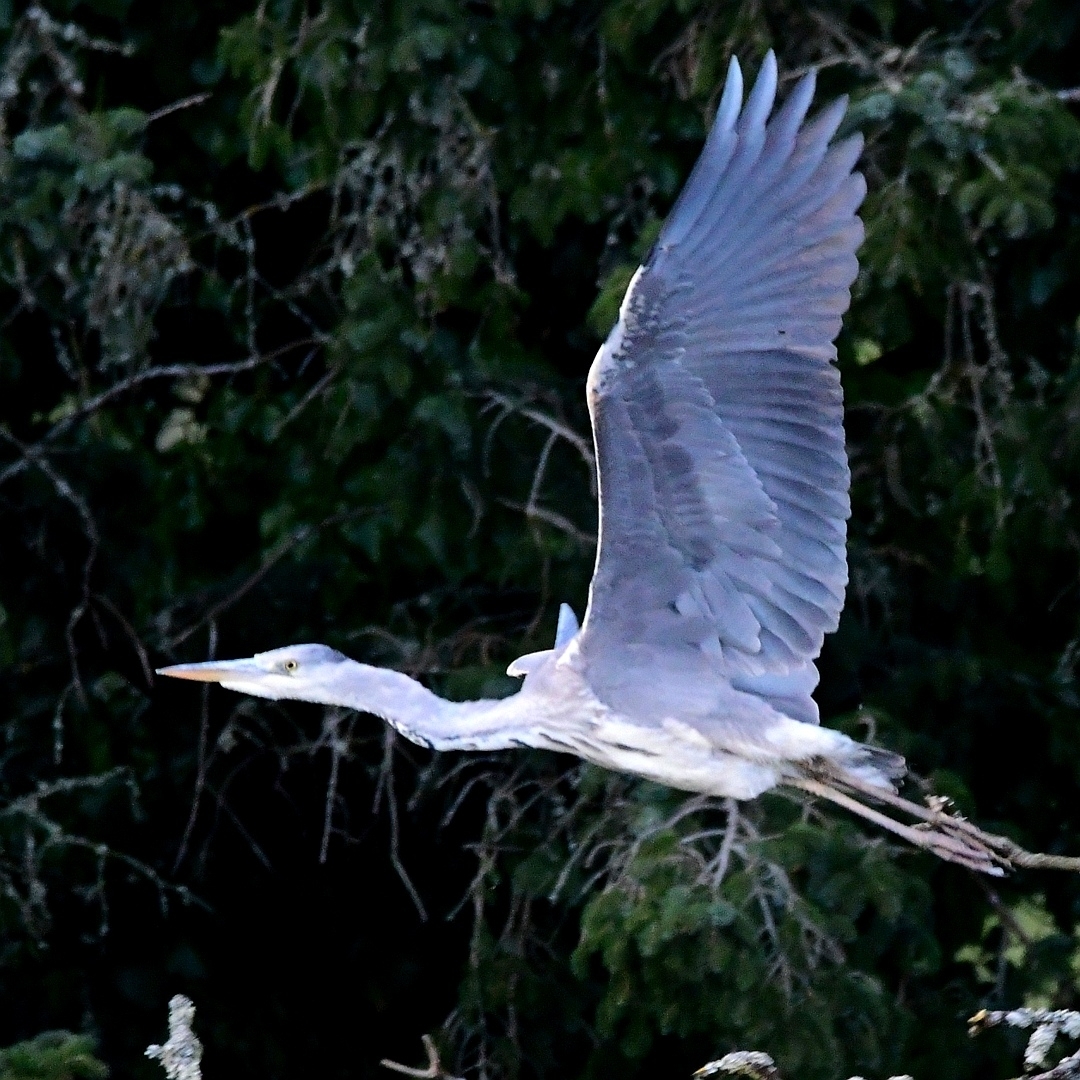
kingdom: Animalia
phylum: Chordata
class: Aves
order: Pelecaniformes
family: Ardeidae
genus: Ardea
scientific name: Ardea cinerea
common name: Grey heron
